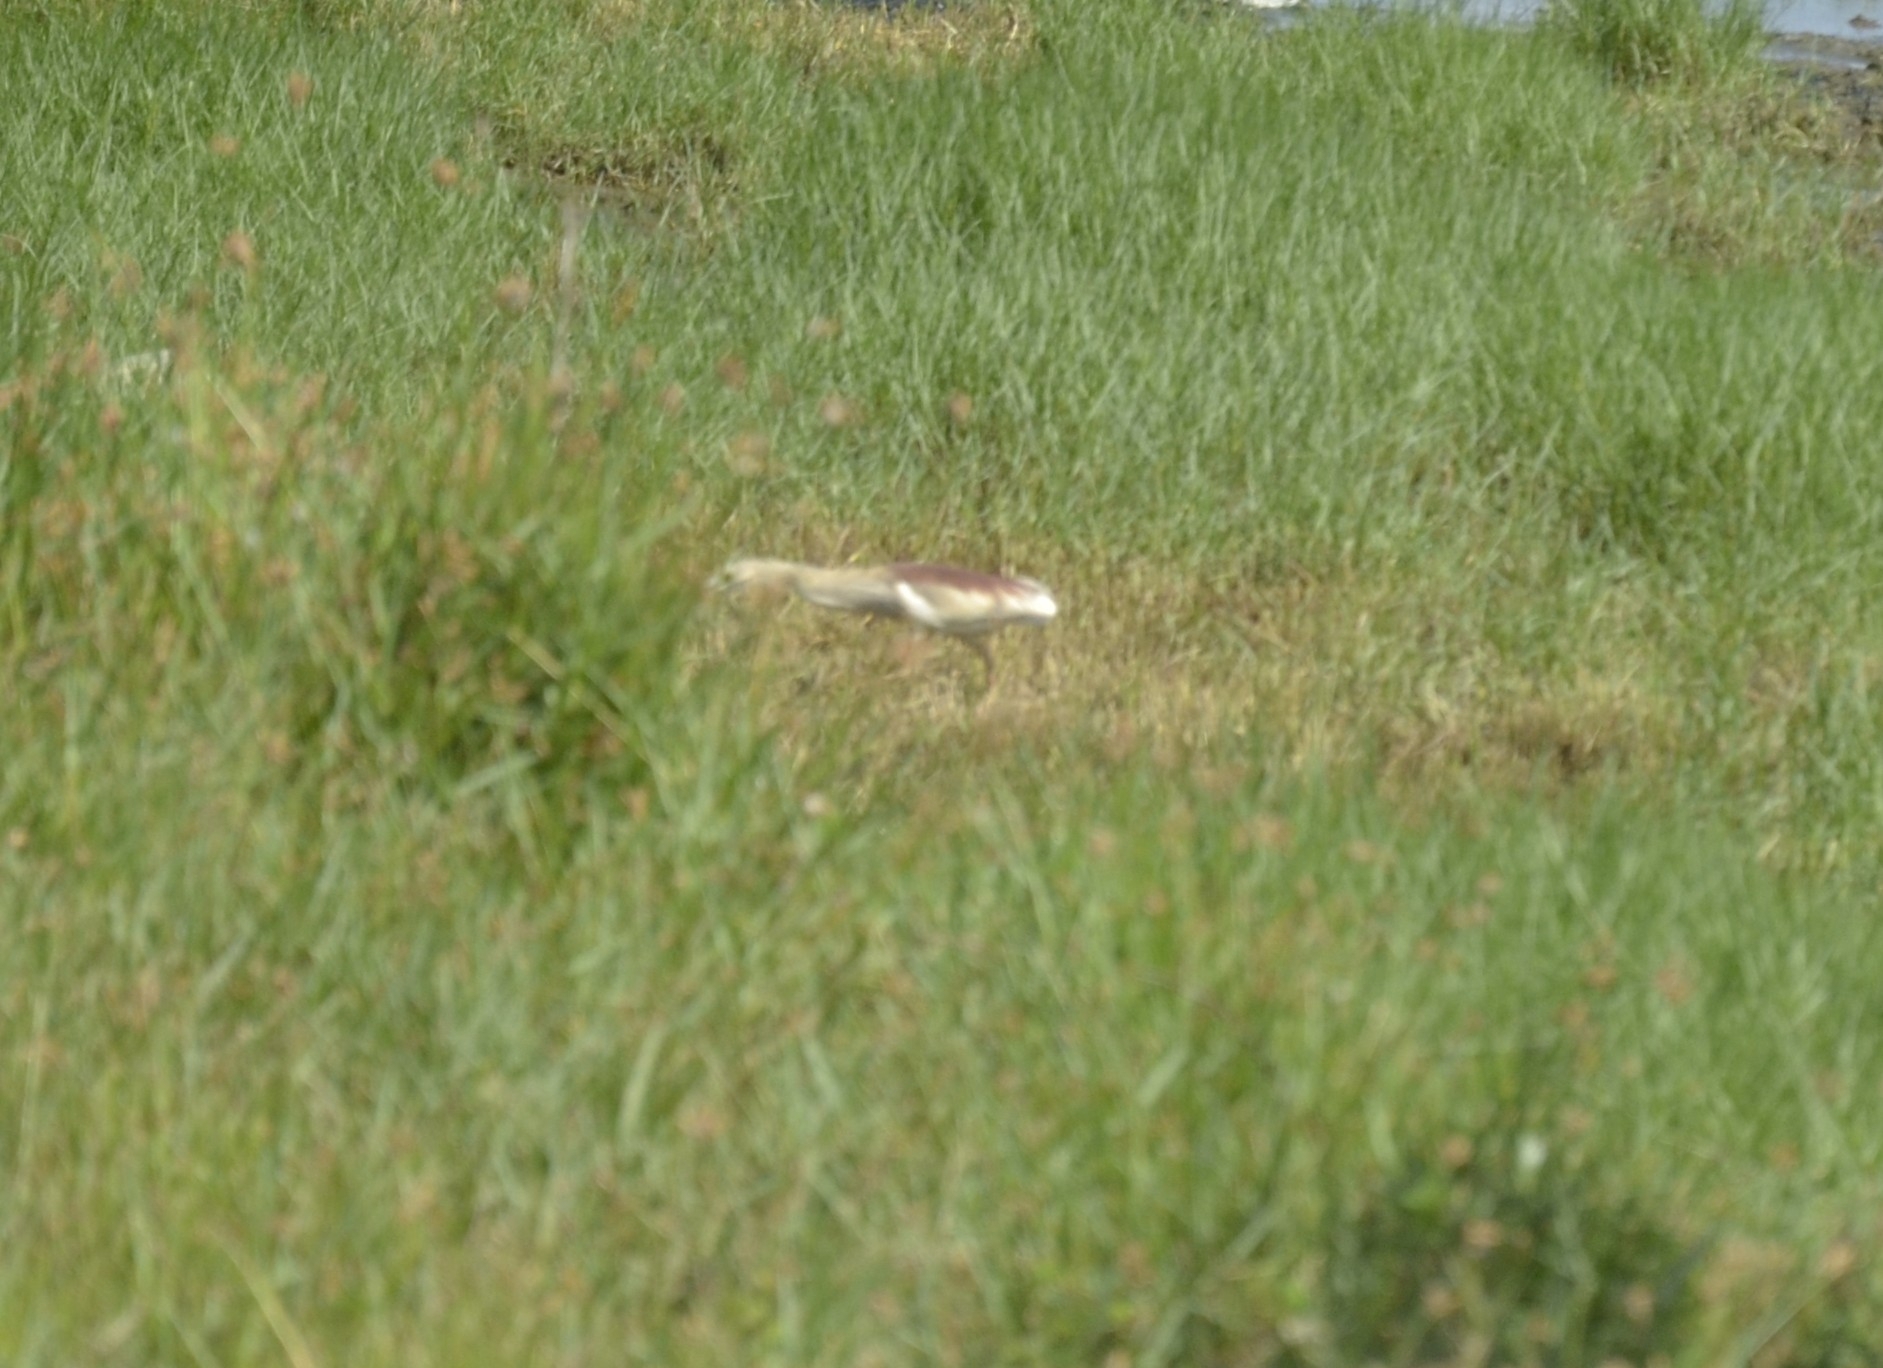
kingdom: Animalia
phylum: Chordata
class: Aves
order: Pelecaniformes
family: Ardeidae
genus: Ardeola
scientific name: Ardeola grayii
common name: Indian pond heron
